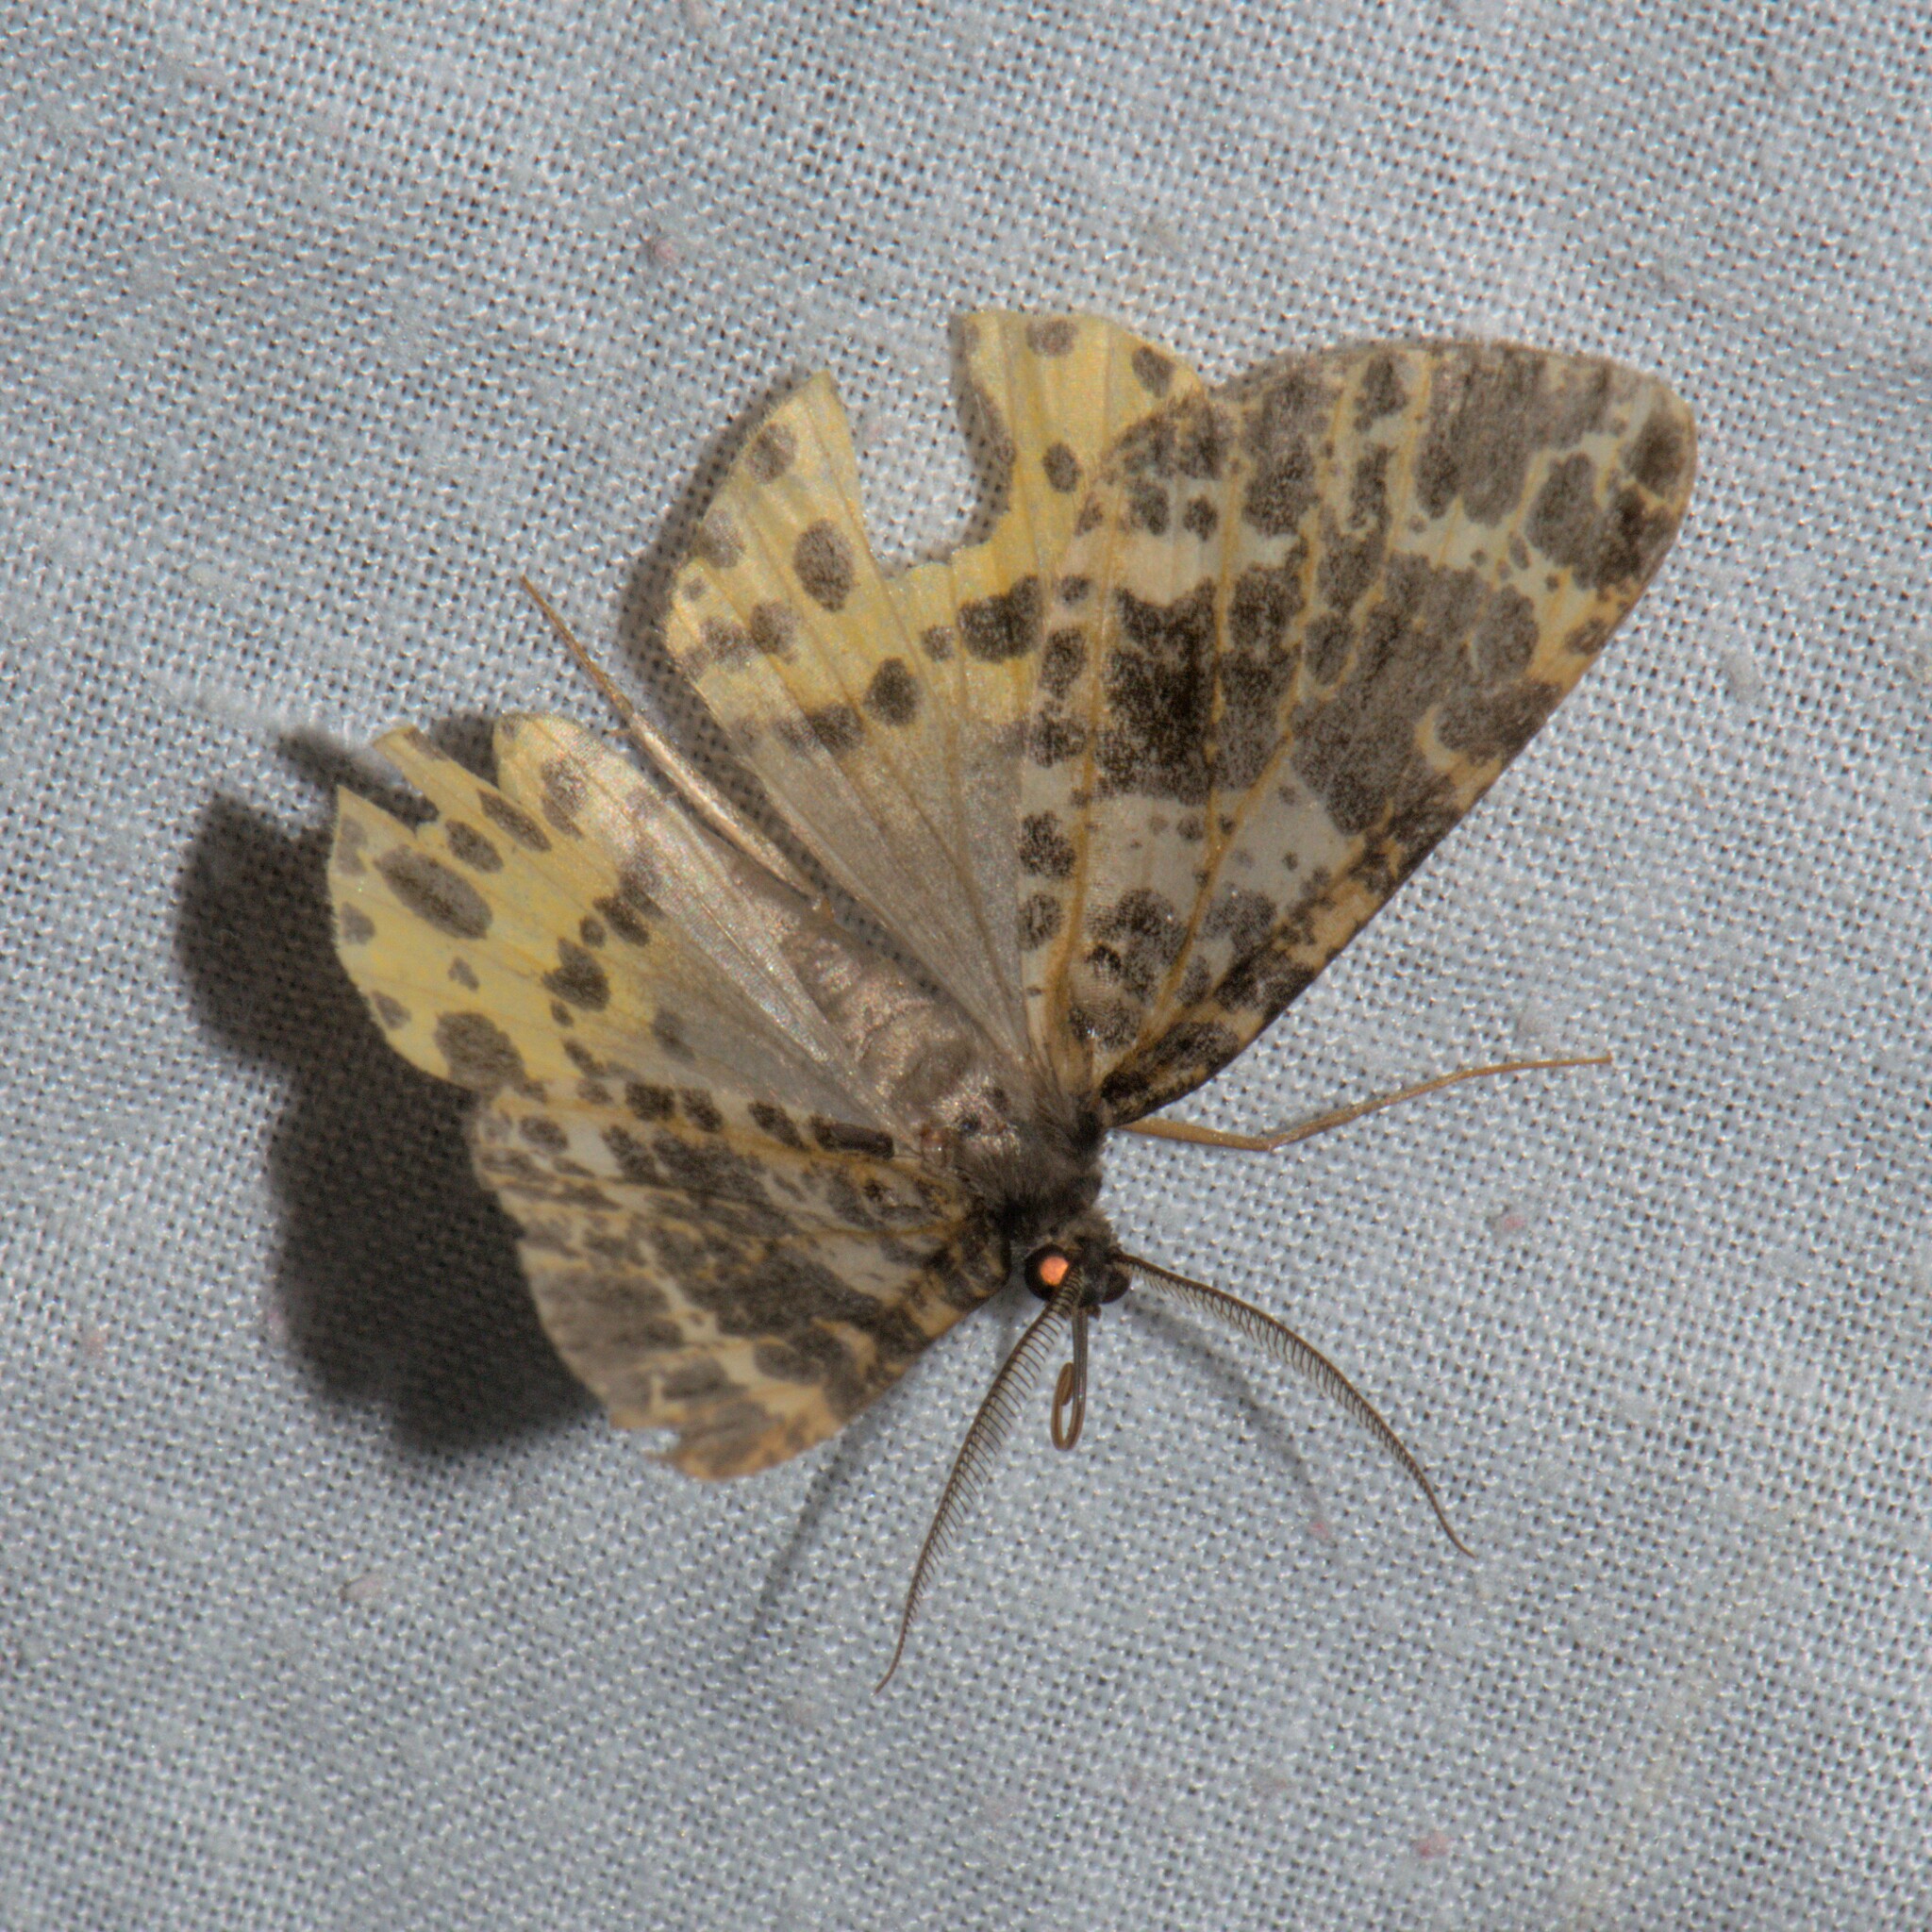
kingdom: Animalia
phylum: Arthropoda
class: Insecta
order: Lepidoptera
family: Geometridae
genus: Arichanna
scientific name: Arichanna sparsa
